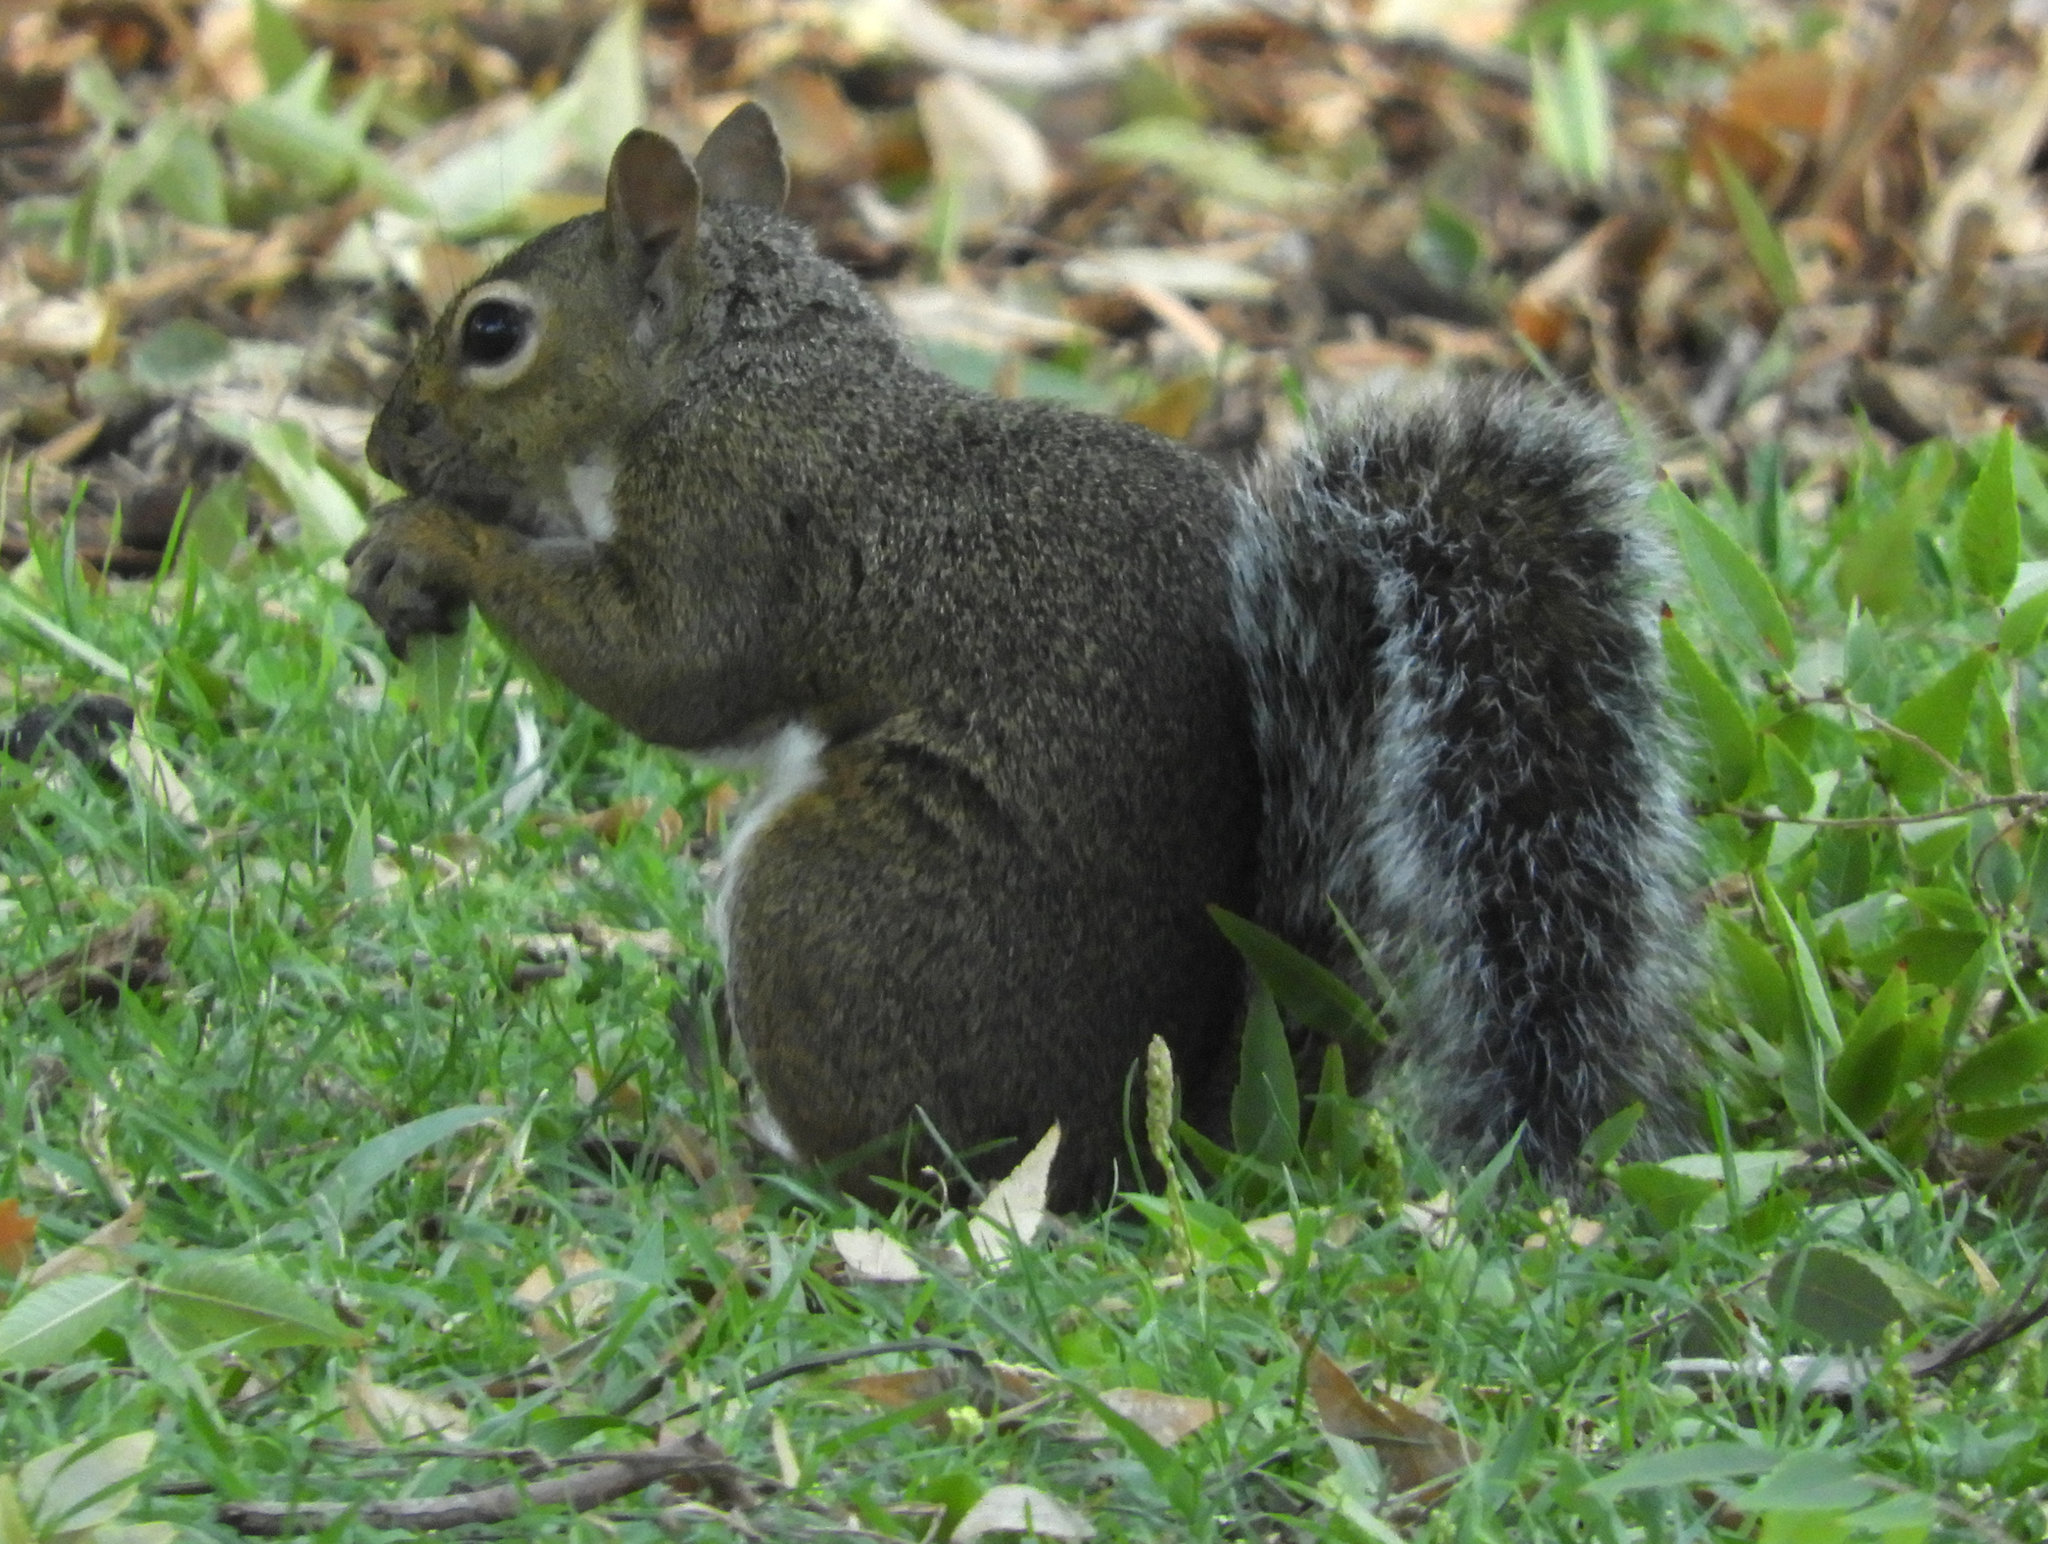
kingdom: Animalia
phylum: Chordata
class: Mammalia
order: Rodentia
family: Sciuridae
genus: Sciurus
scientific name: Sciurus carolinensis
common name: Eastern gray squirrel
